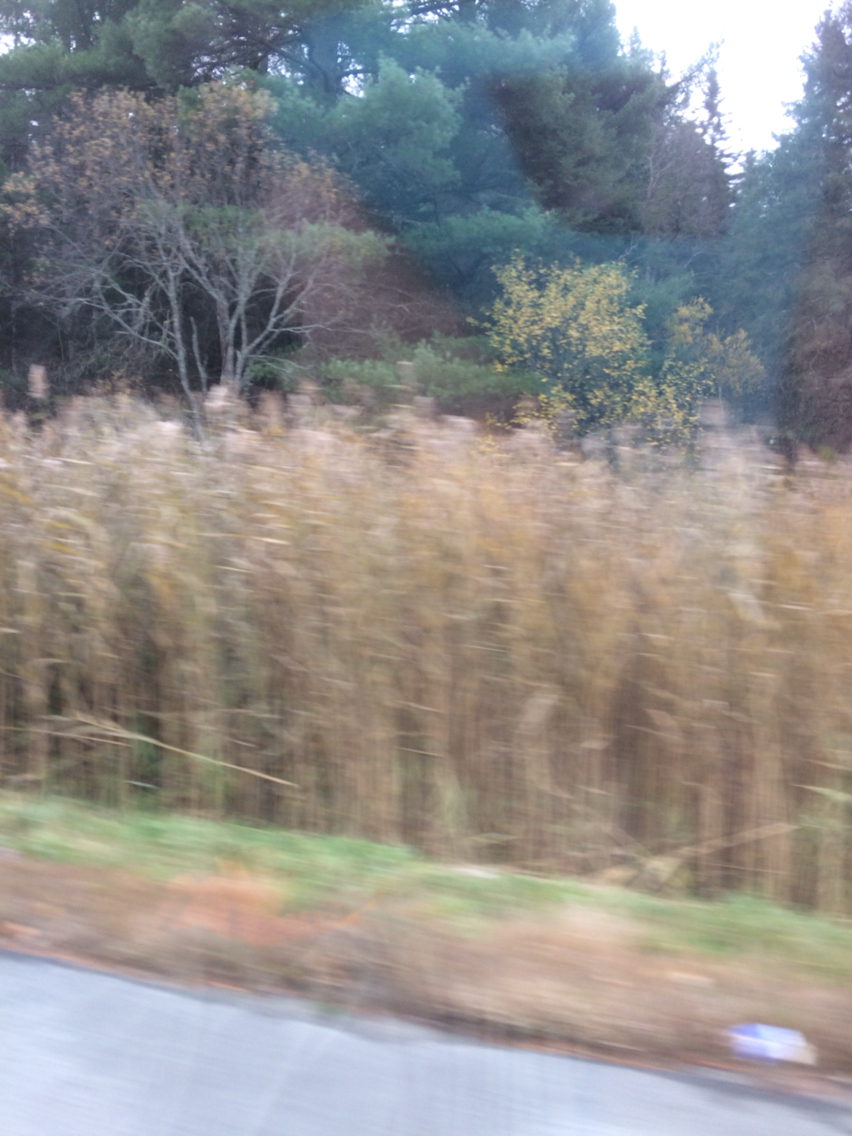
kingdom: Plantae
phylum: Tracheophyta
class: Liliopsida
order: Poales
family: Poaceae
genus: Phragmites
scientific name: Phragmites australis
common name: Common reed
